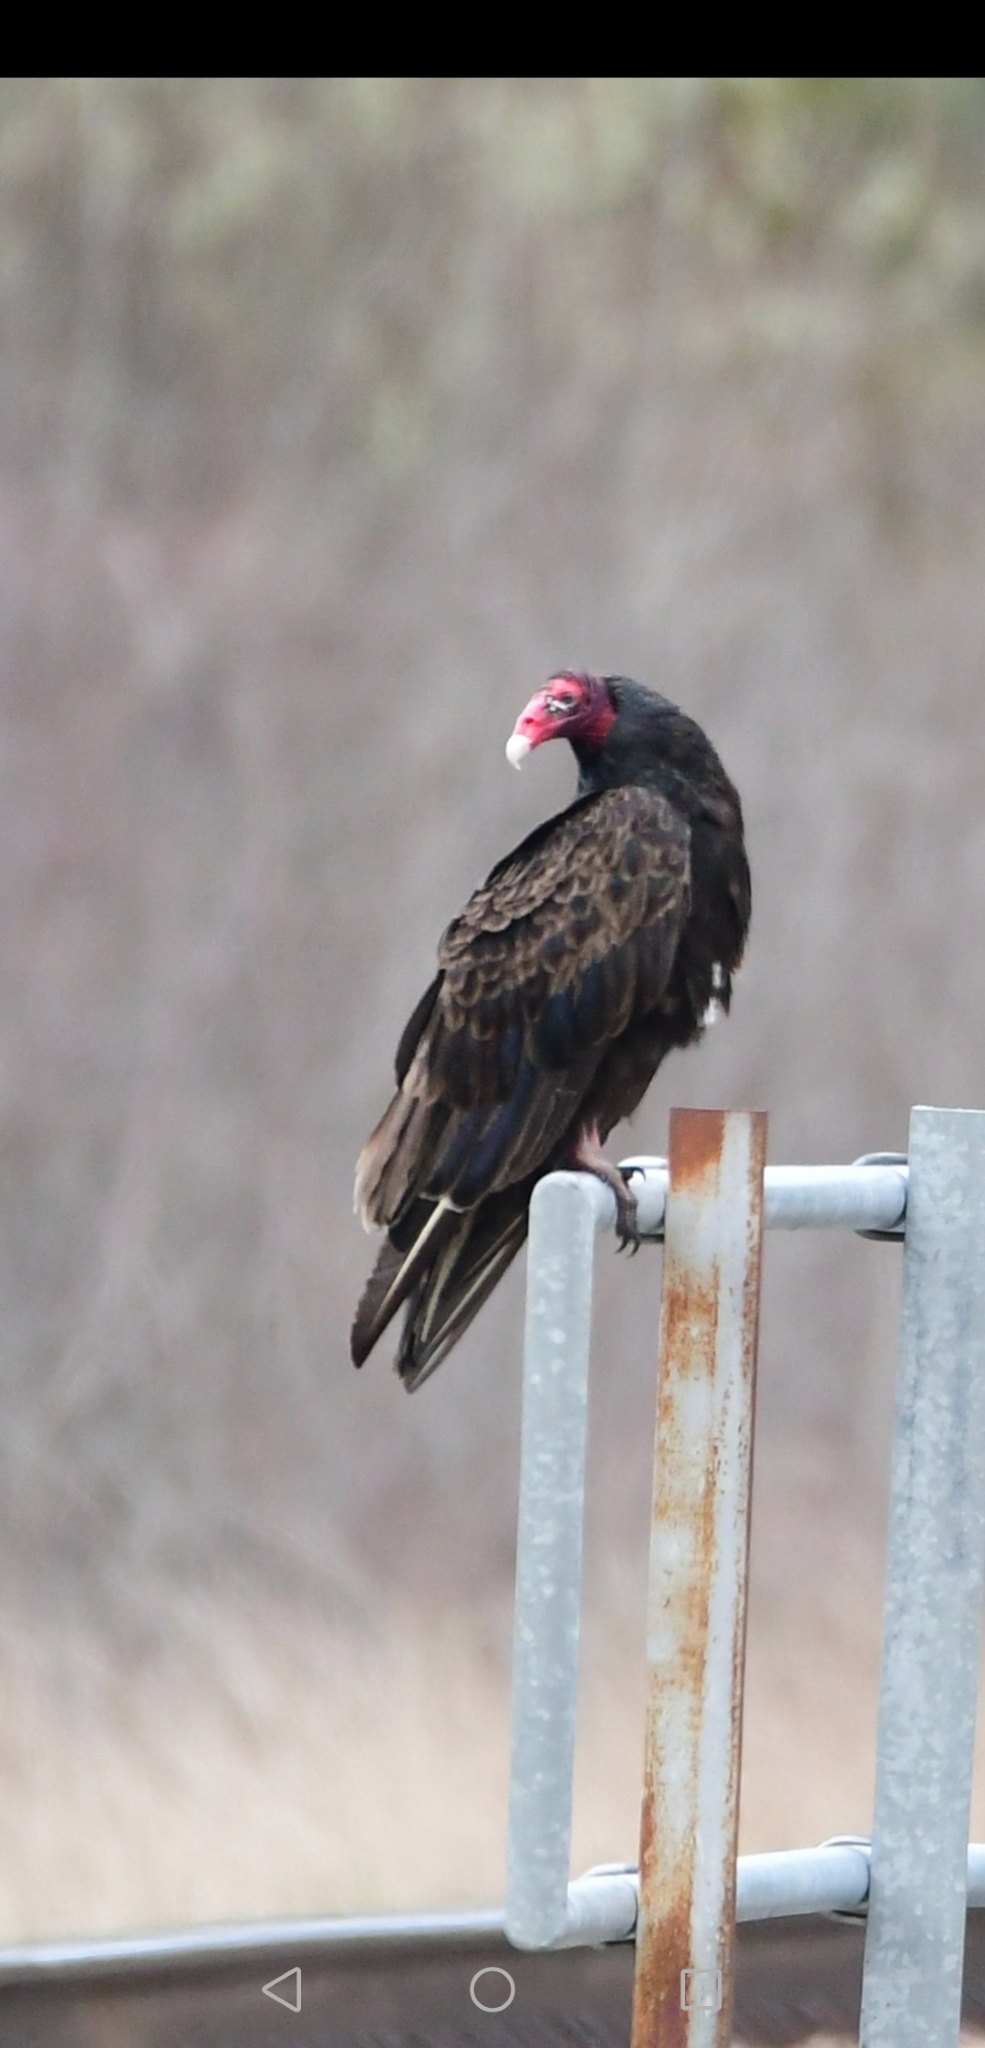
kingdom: Animalia
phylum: Chordata
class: Aves
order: Accipitriformes
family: Cathartidae
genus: Cathartes
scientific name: Cathartes aura
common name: Turkey vulture
